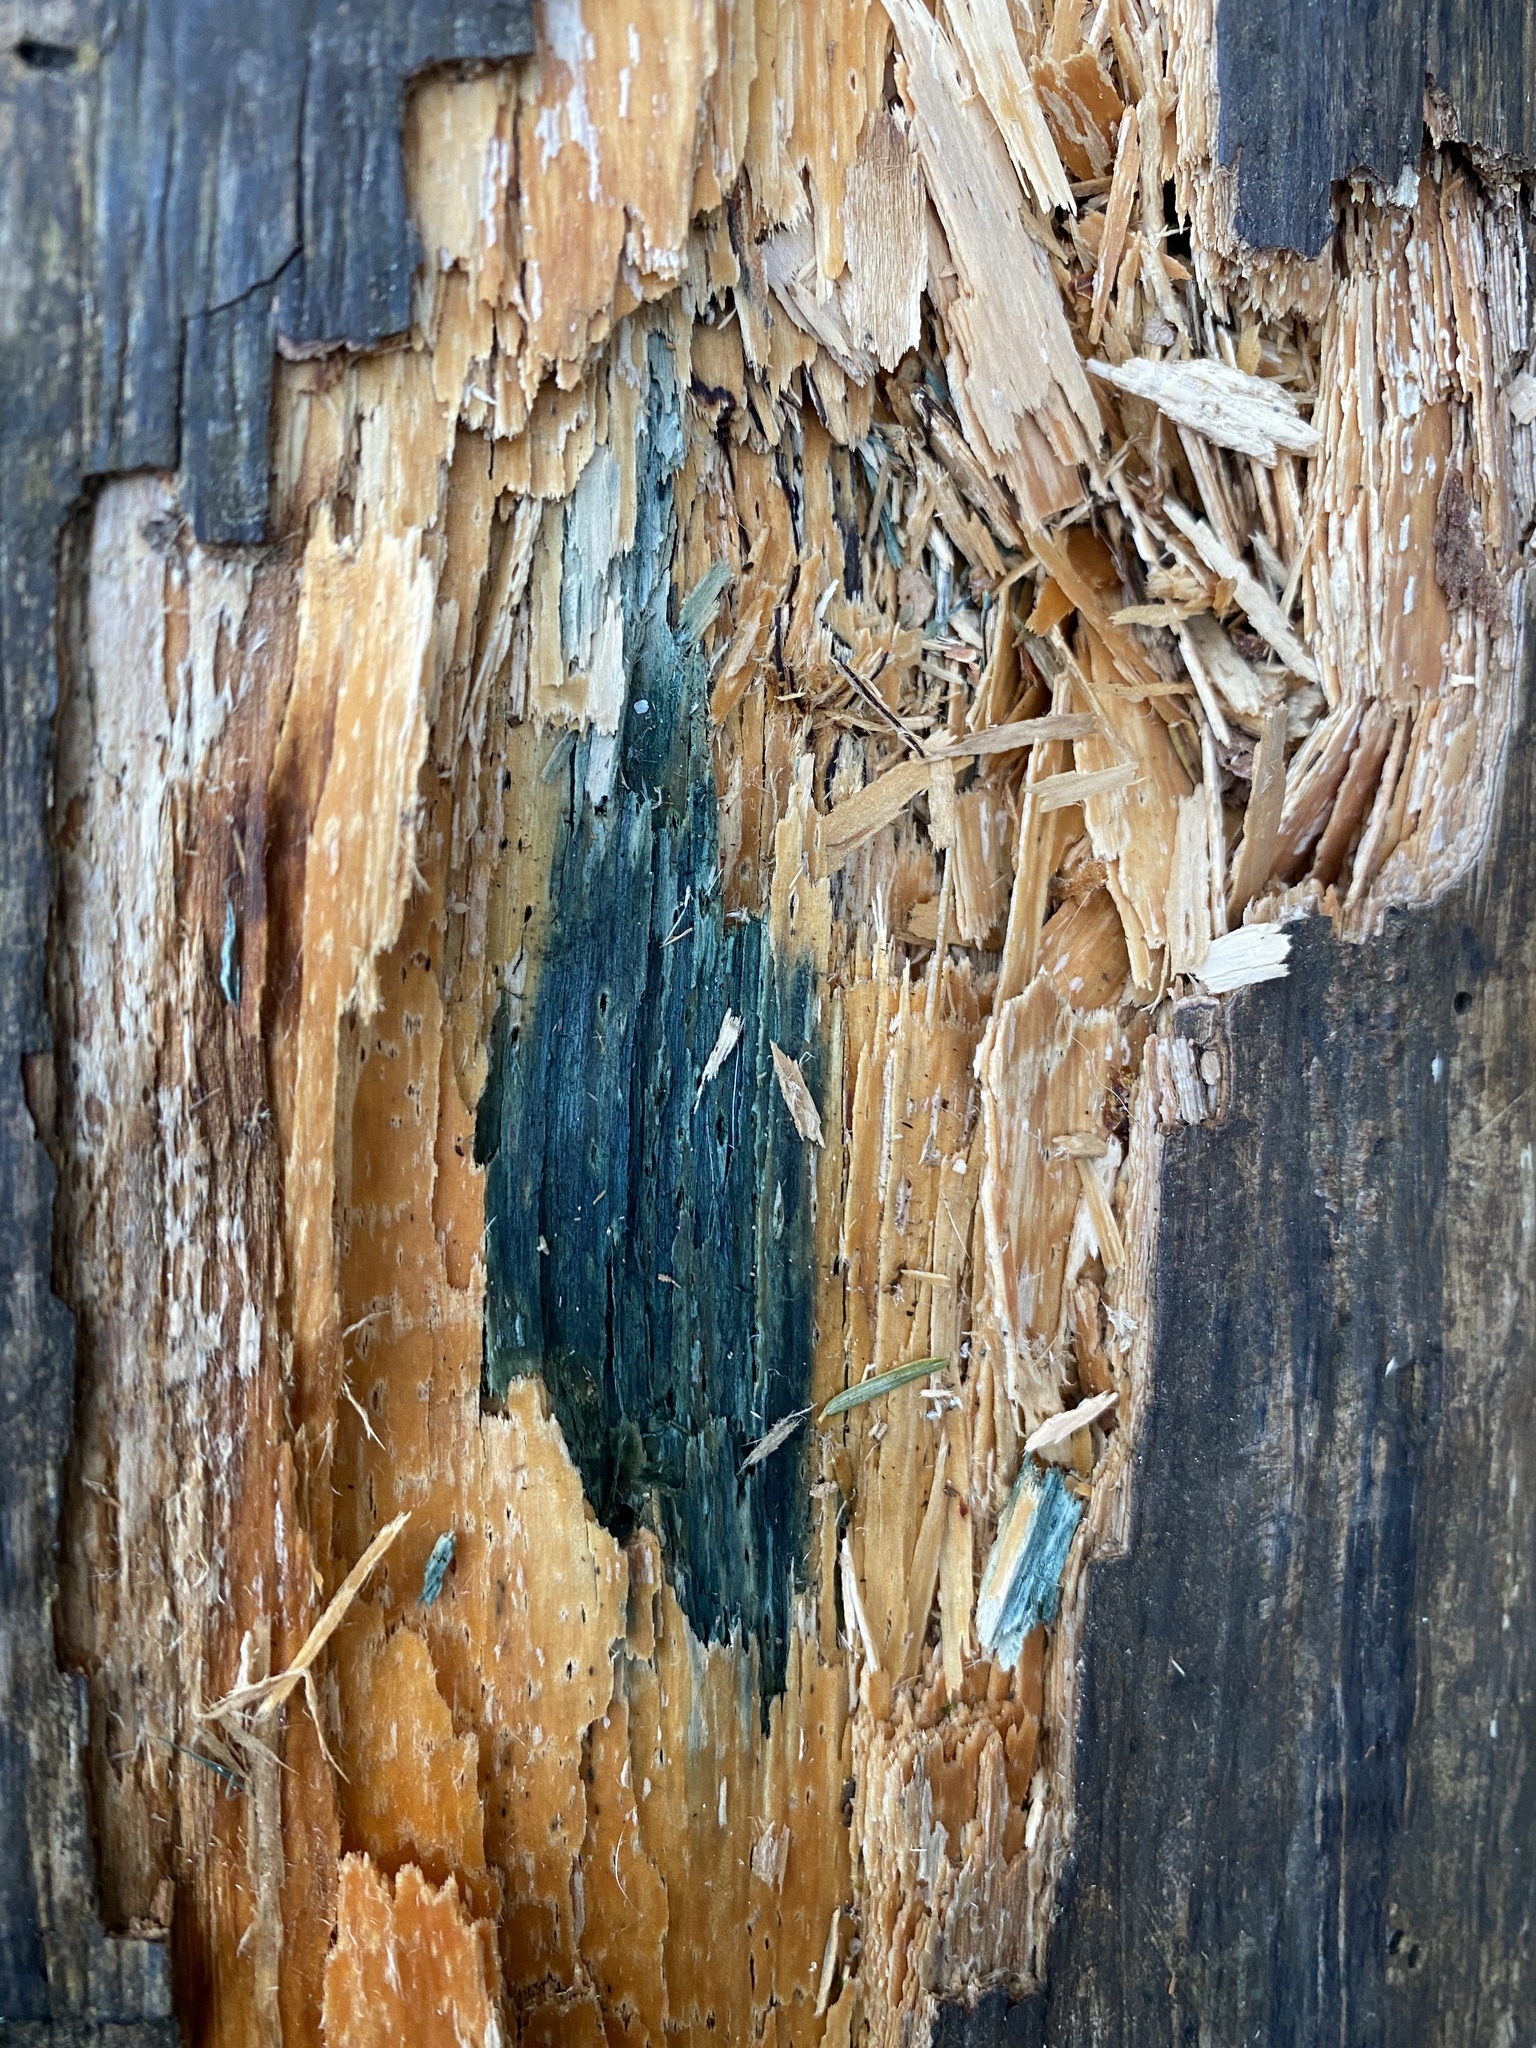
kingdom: Fungi
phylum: Ascomycota
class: Leotiomycetes
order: Helotiales
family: Chlorociboriaceae
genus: Chlorociboria
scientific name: Chlorociboria aeruginascens
